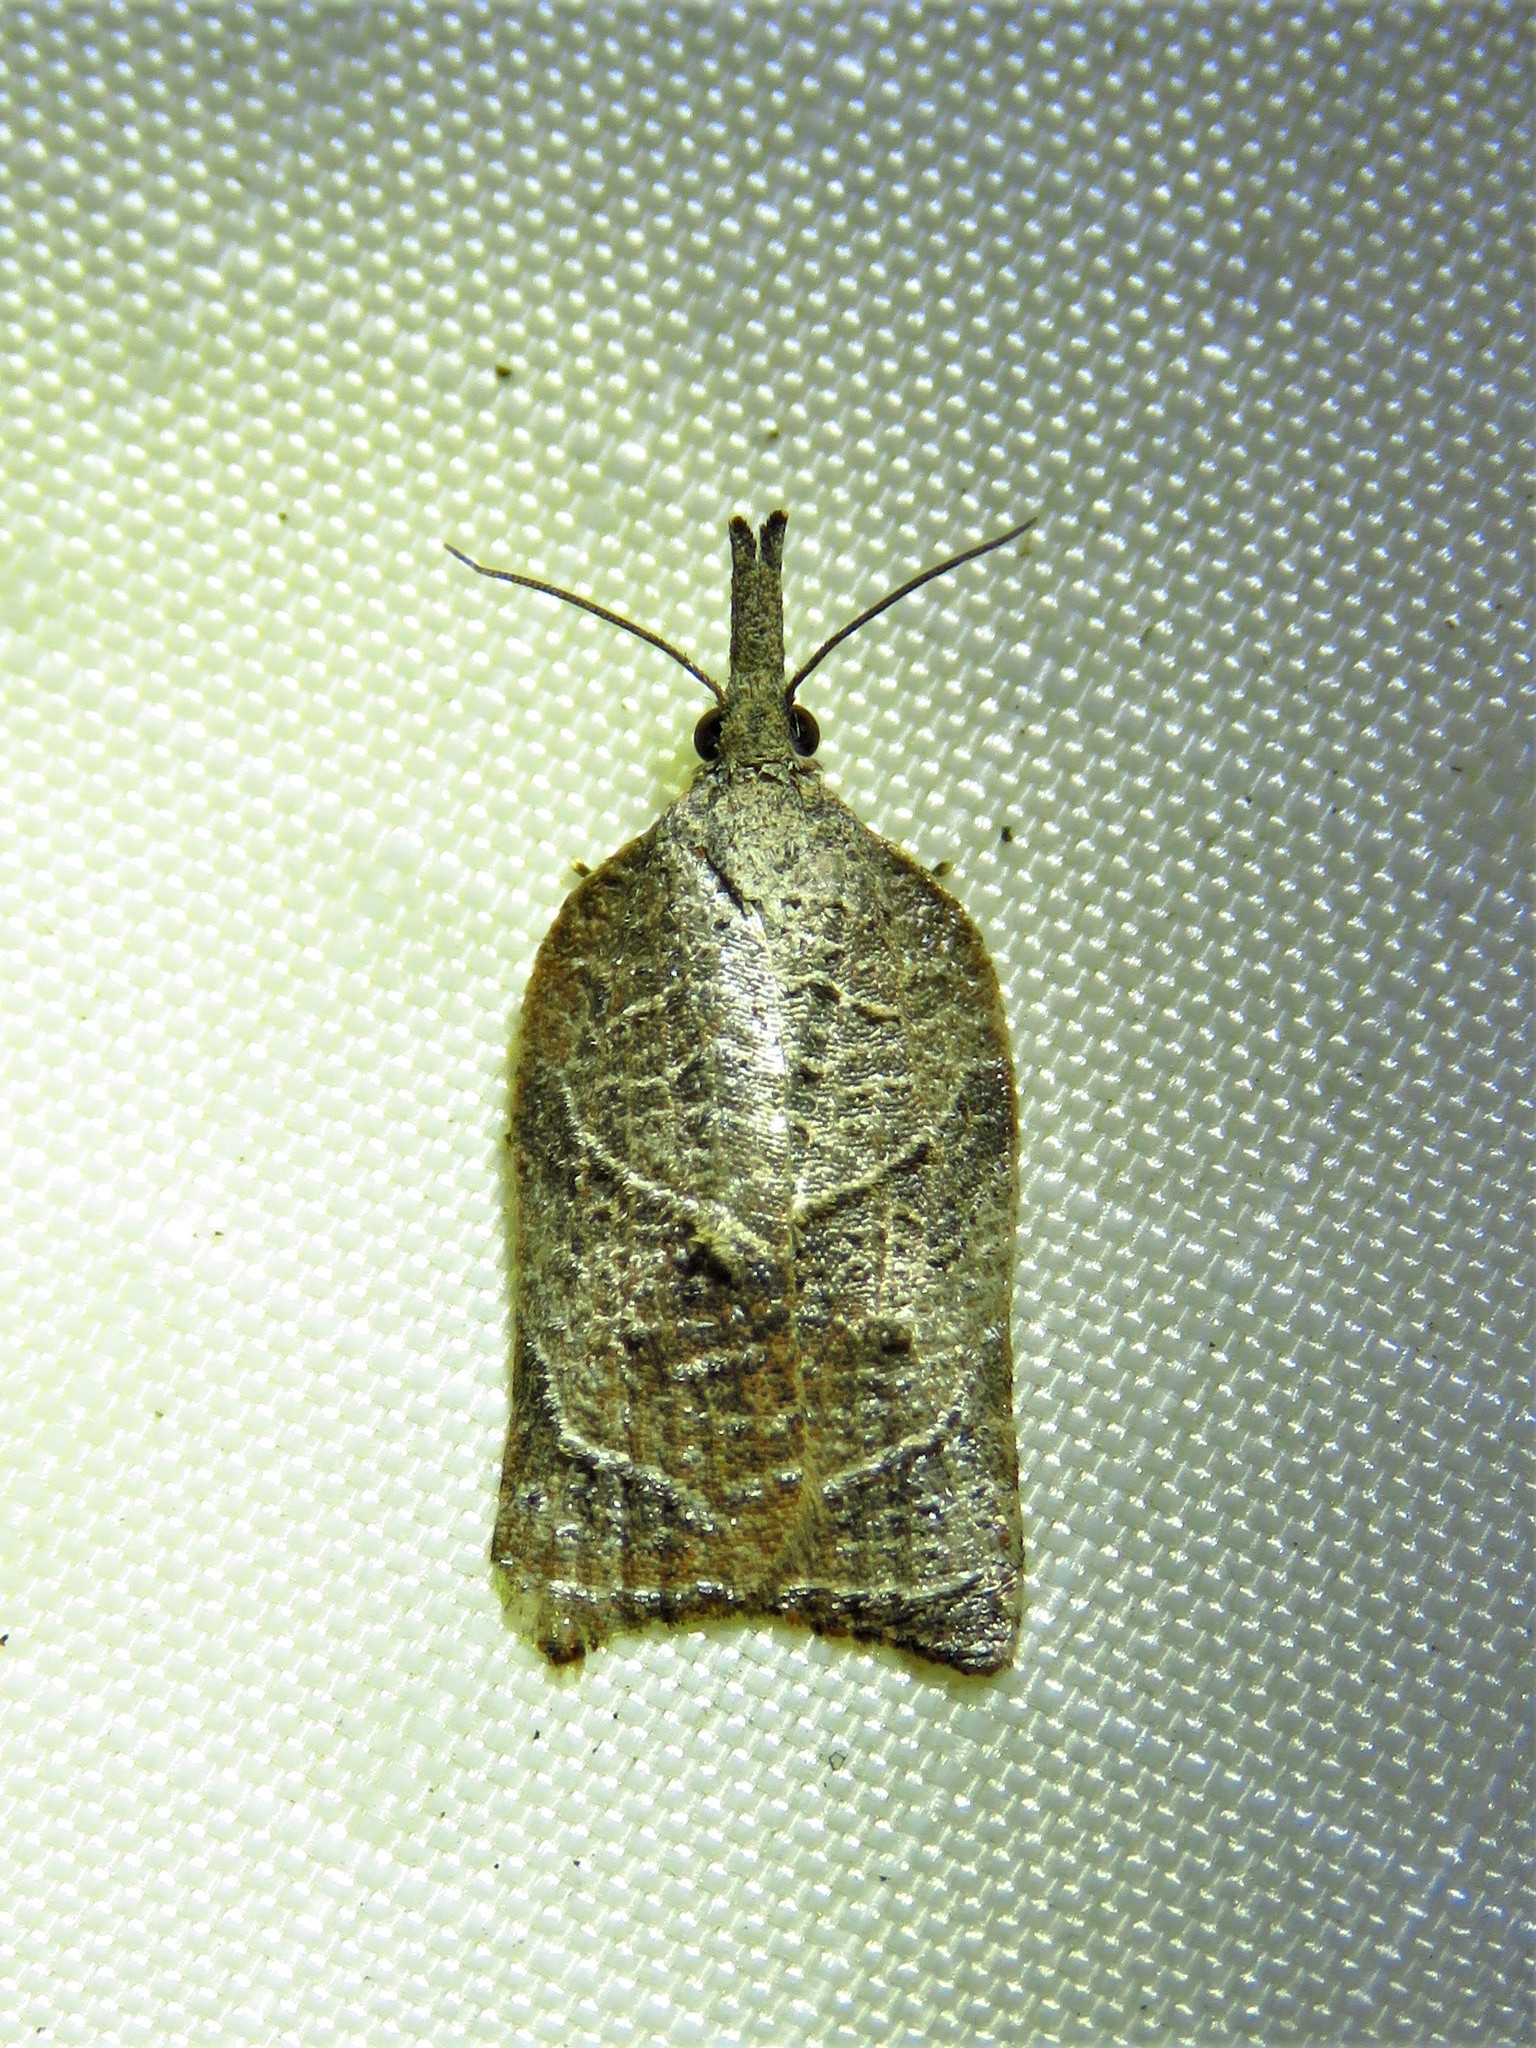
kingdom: Animalia
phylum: Arthropoda
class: Insecta
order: Lepidoptera
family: Tortricidae
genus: Platynota
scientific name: Platynota rostrana
